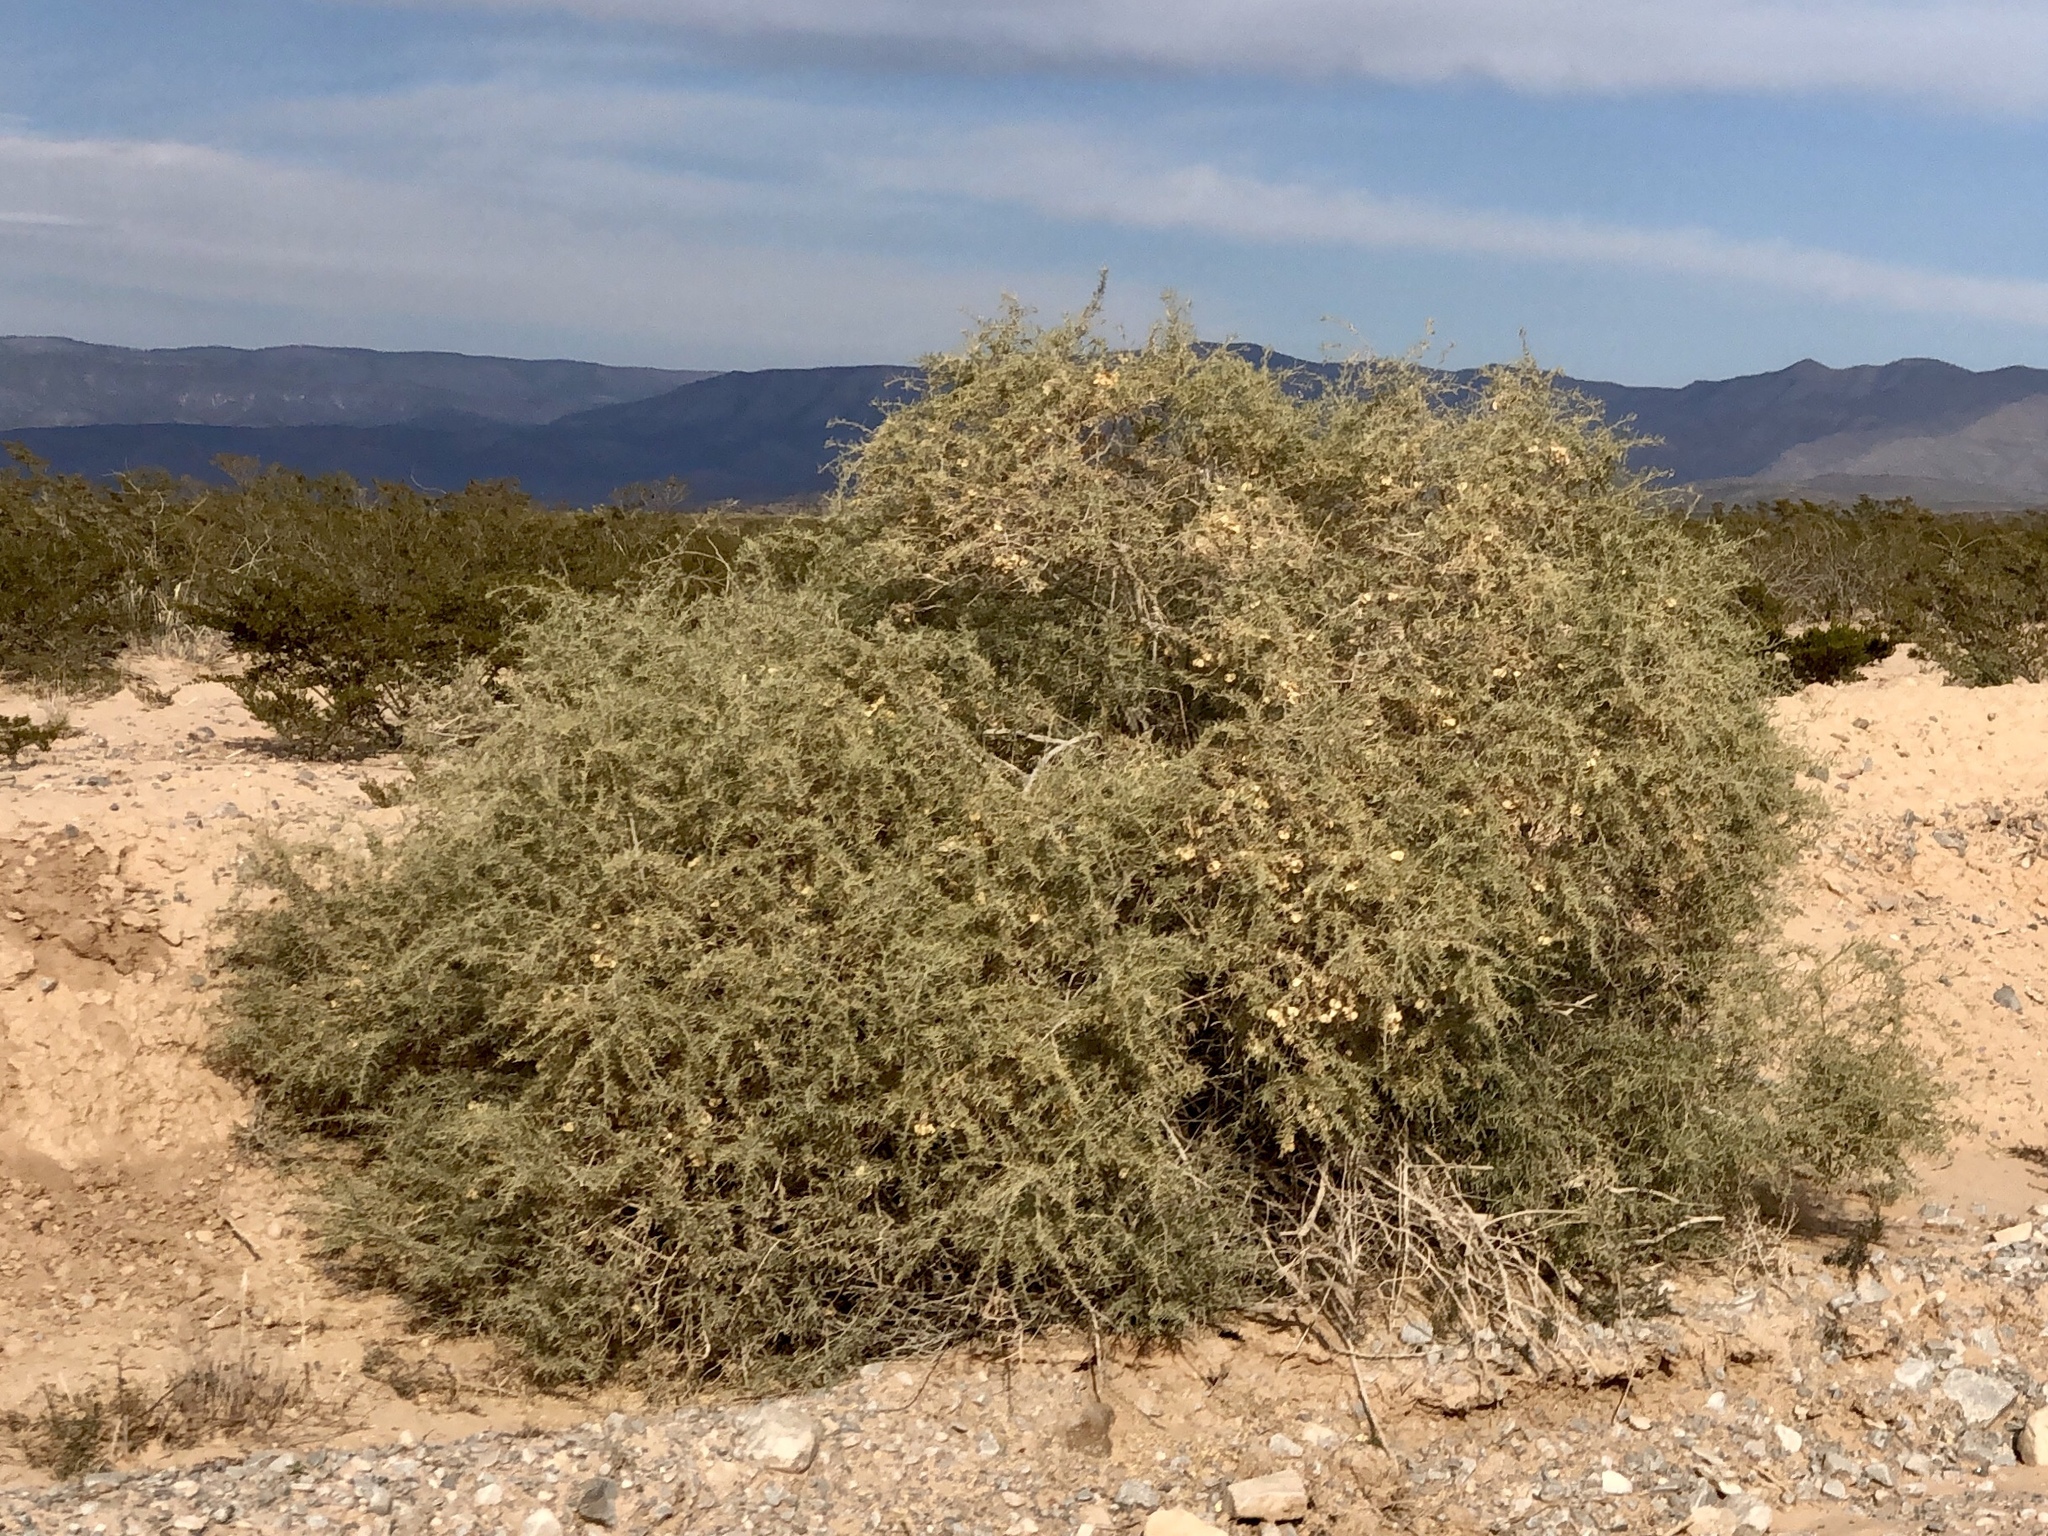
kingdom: Plantae
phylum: Tracheophyta
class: Magnoliopsida
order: Caryophyllales
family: Amaranthaceae
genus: Atriplex
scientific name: Atriplex canescens
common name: Four-wing saltbush
